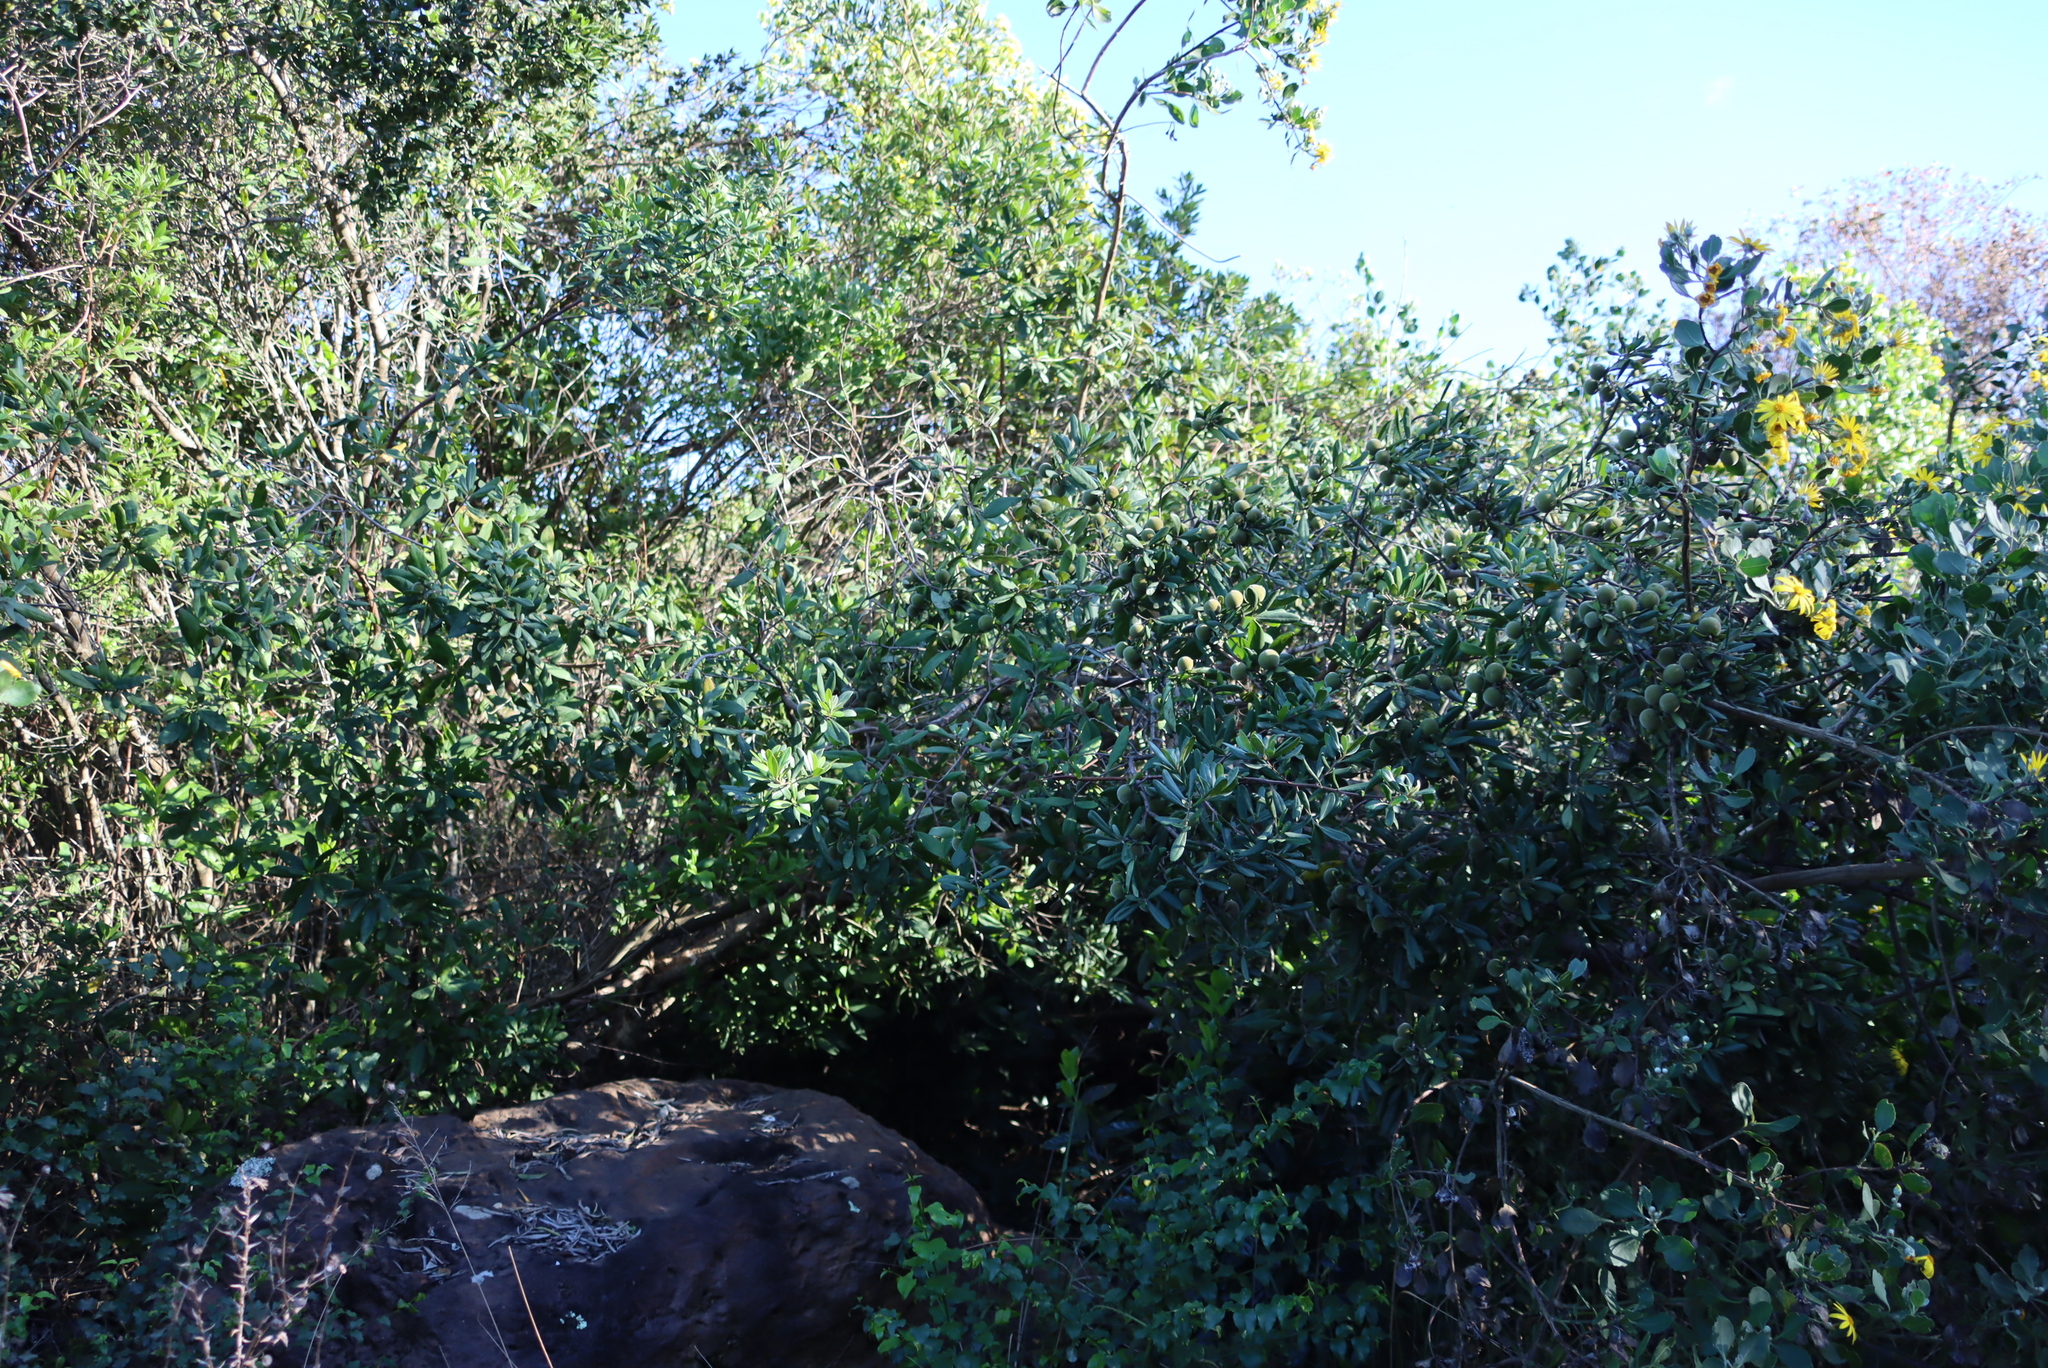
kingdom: Plantae
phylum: Tracheophyta
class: Magnoliopsida
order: Ericales
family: Ebenaceae
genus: Diospyros
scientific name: Diospyros dichrophylla
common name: Common star-apple
